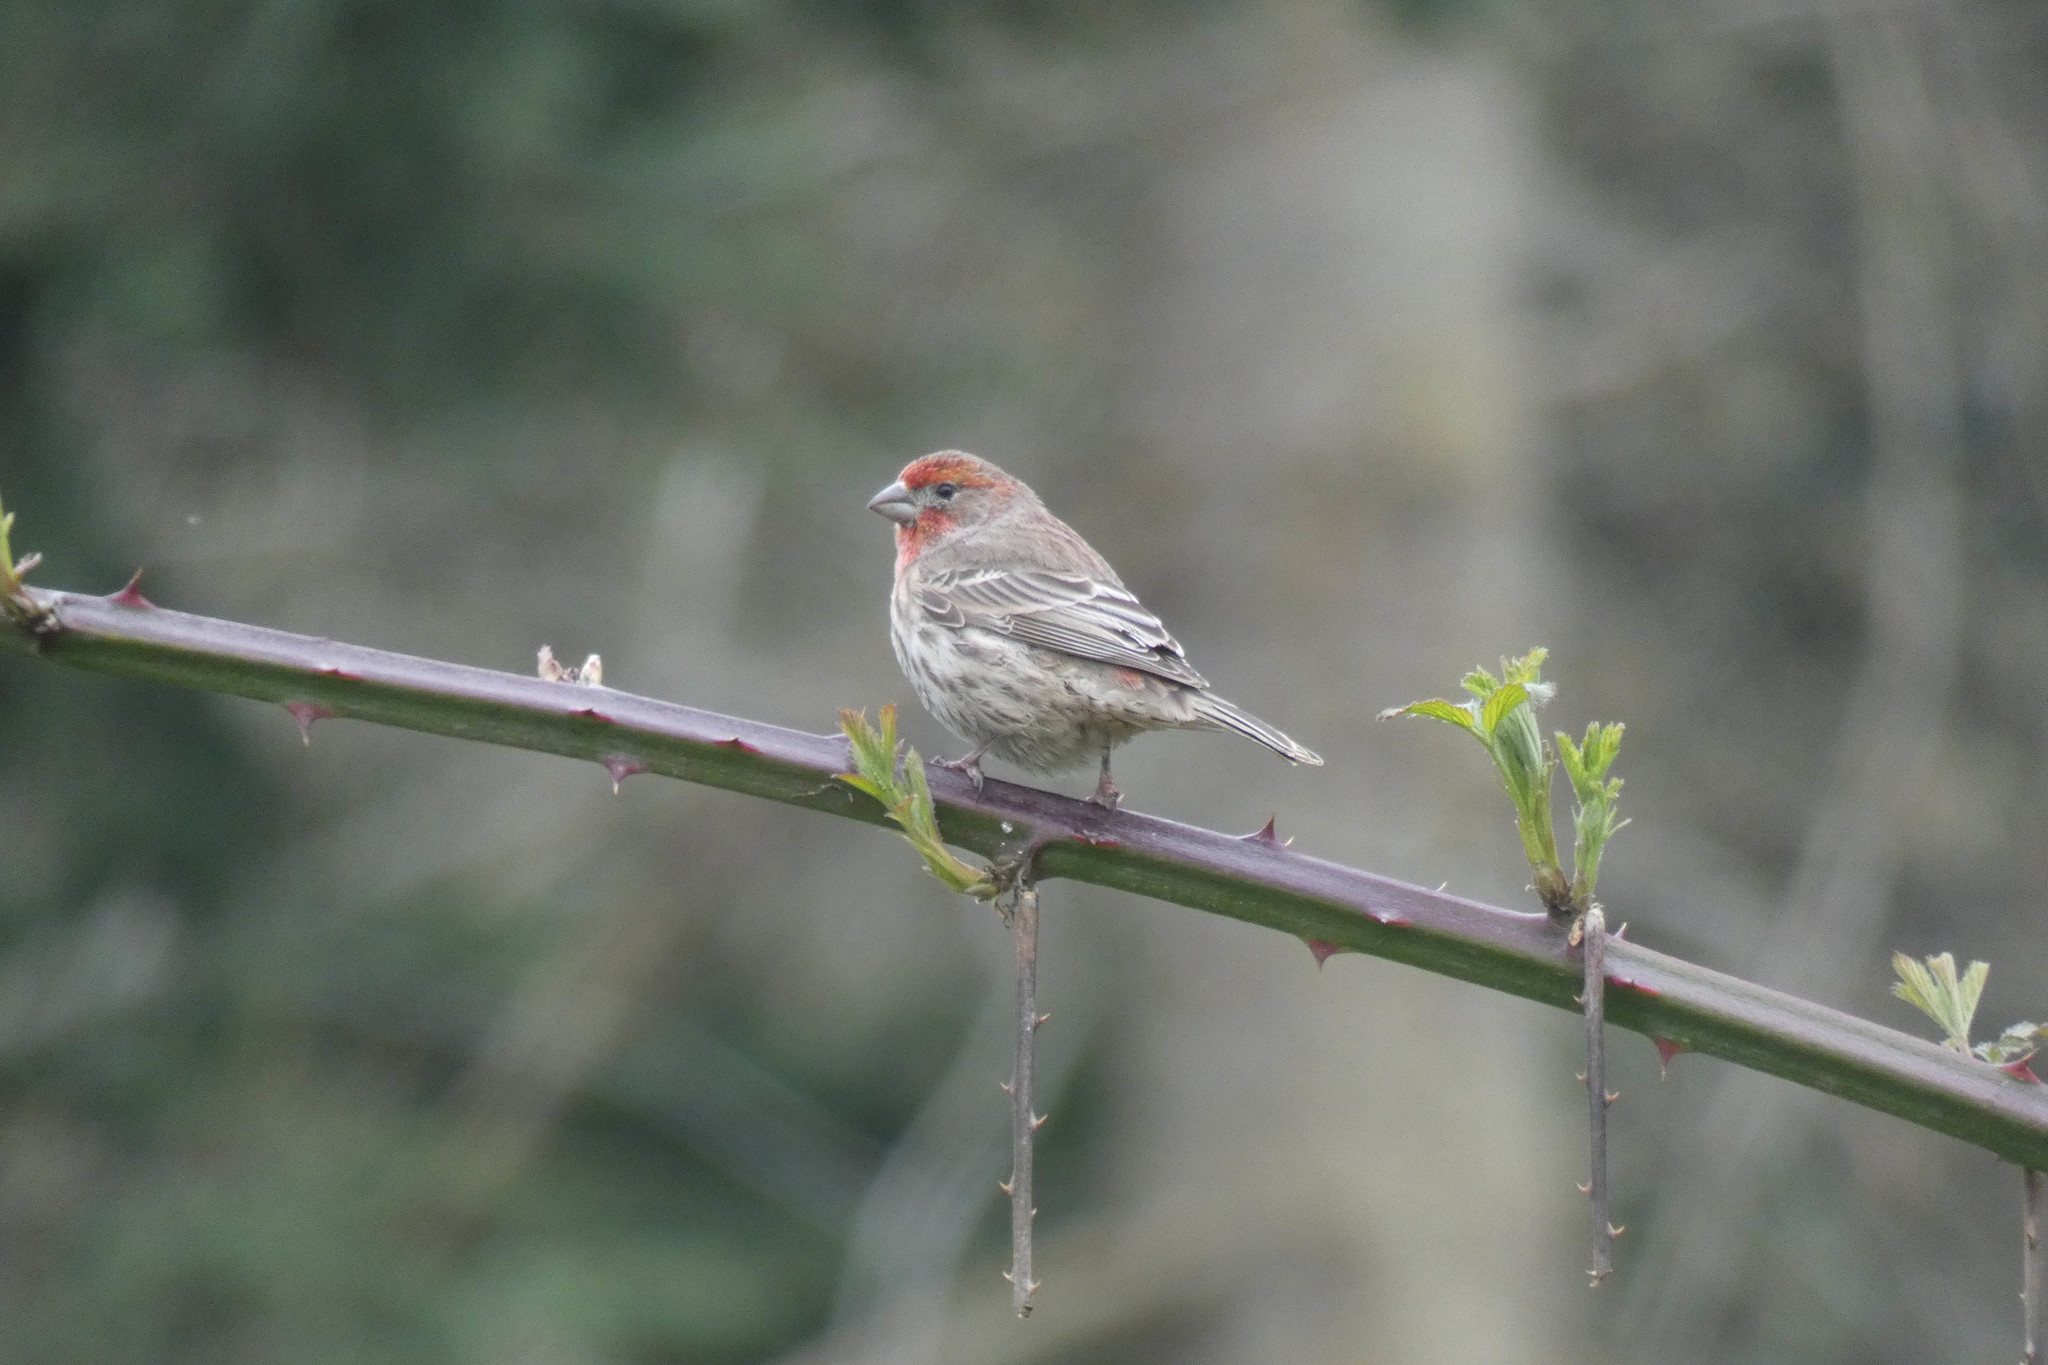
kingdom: Animalia
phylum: Chordata
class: Aves
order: Passeriformes
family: Fringillidae
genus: Haemorhous
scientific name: Haemorhous mexicanus
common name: House finch
